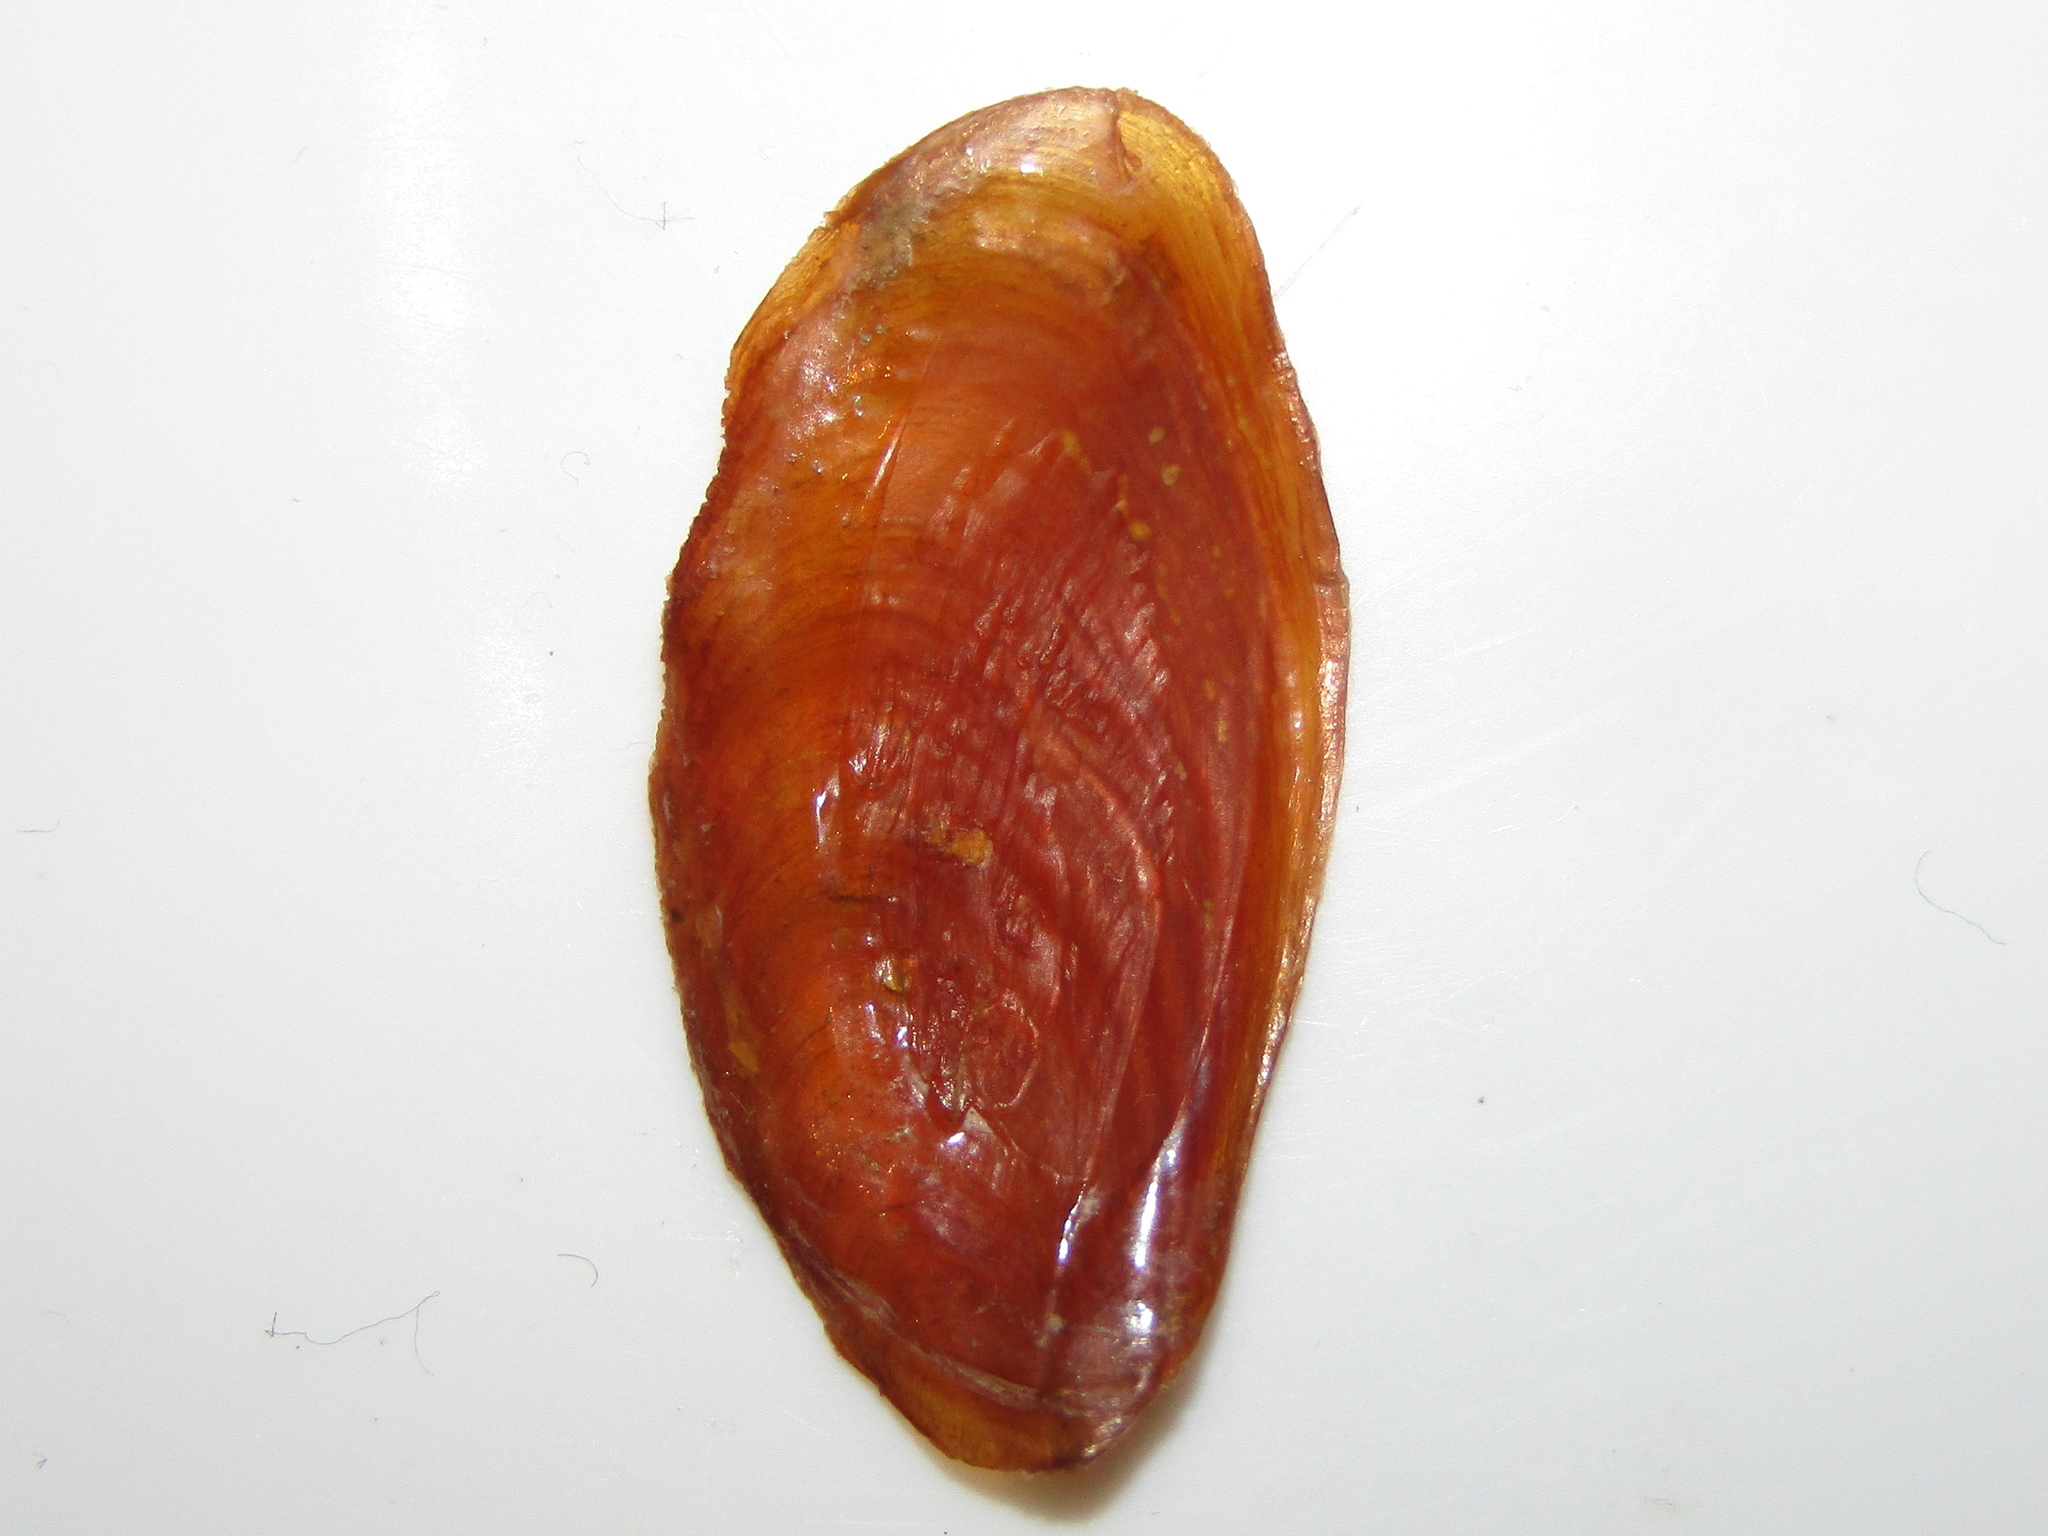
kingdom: Animalia
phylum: Mollusca
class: Gastropoda
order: Littorinimorpha
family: Cymatiidae
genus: Cabestana
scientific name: Cabestana spengleri
